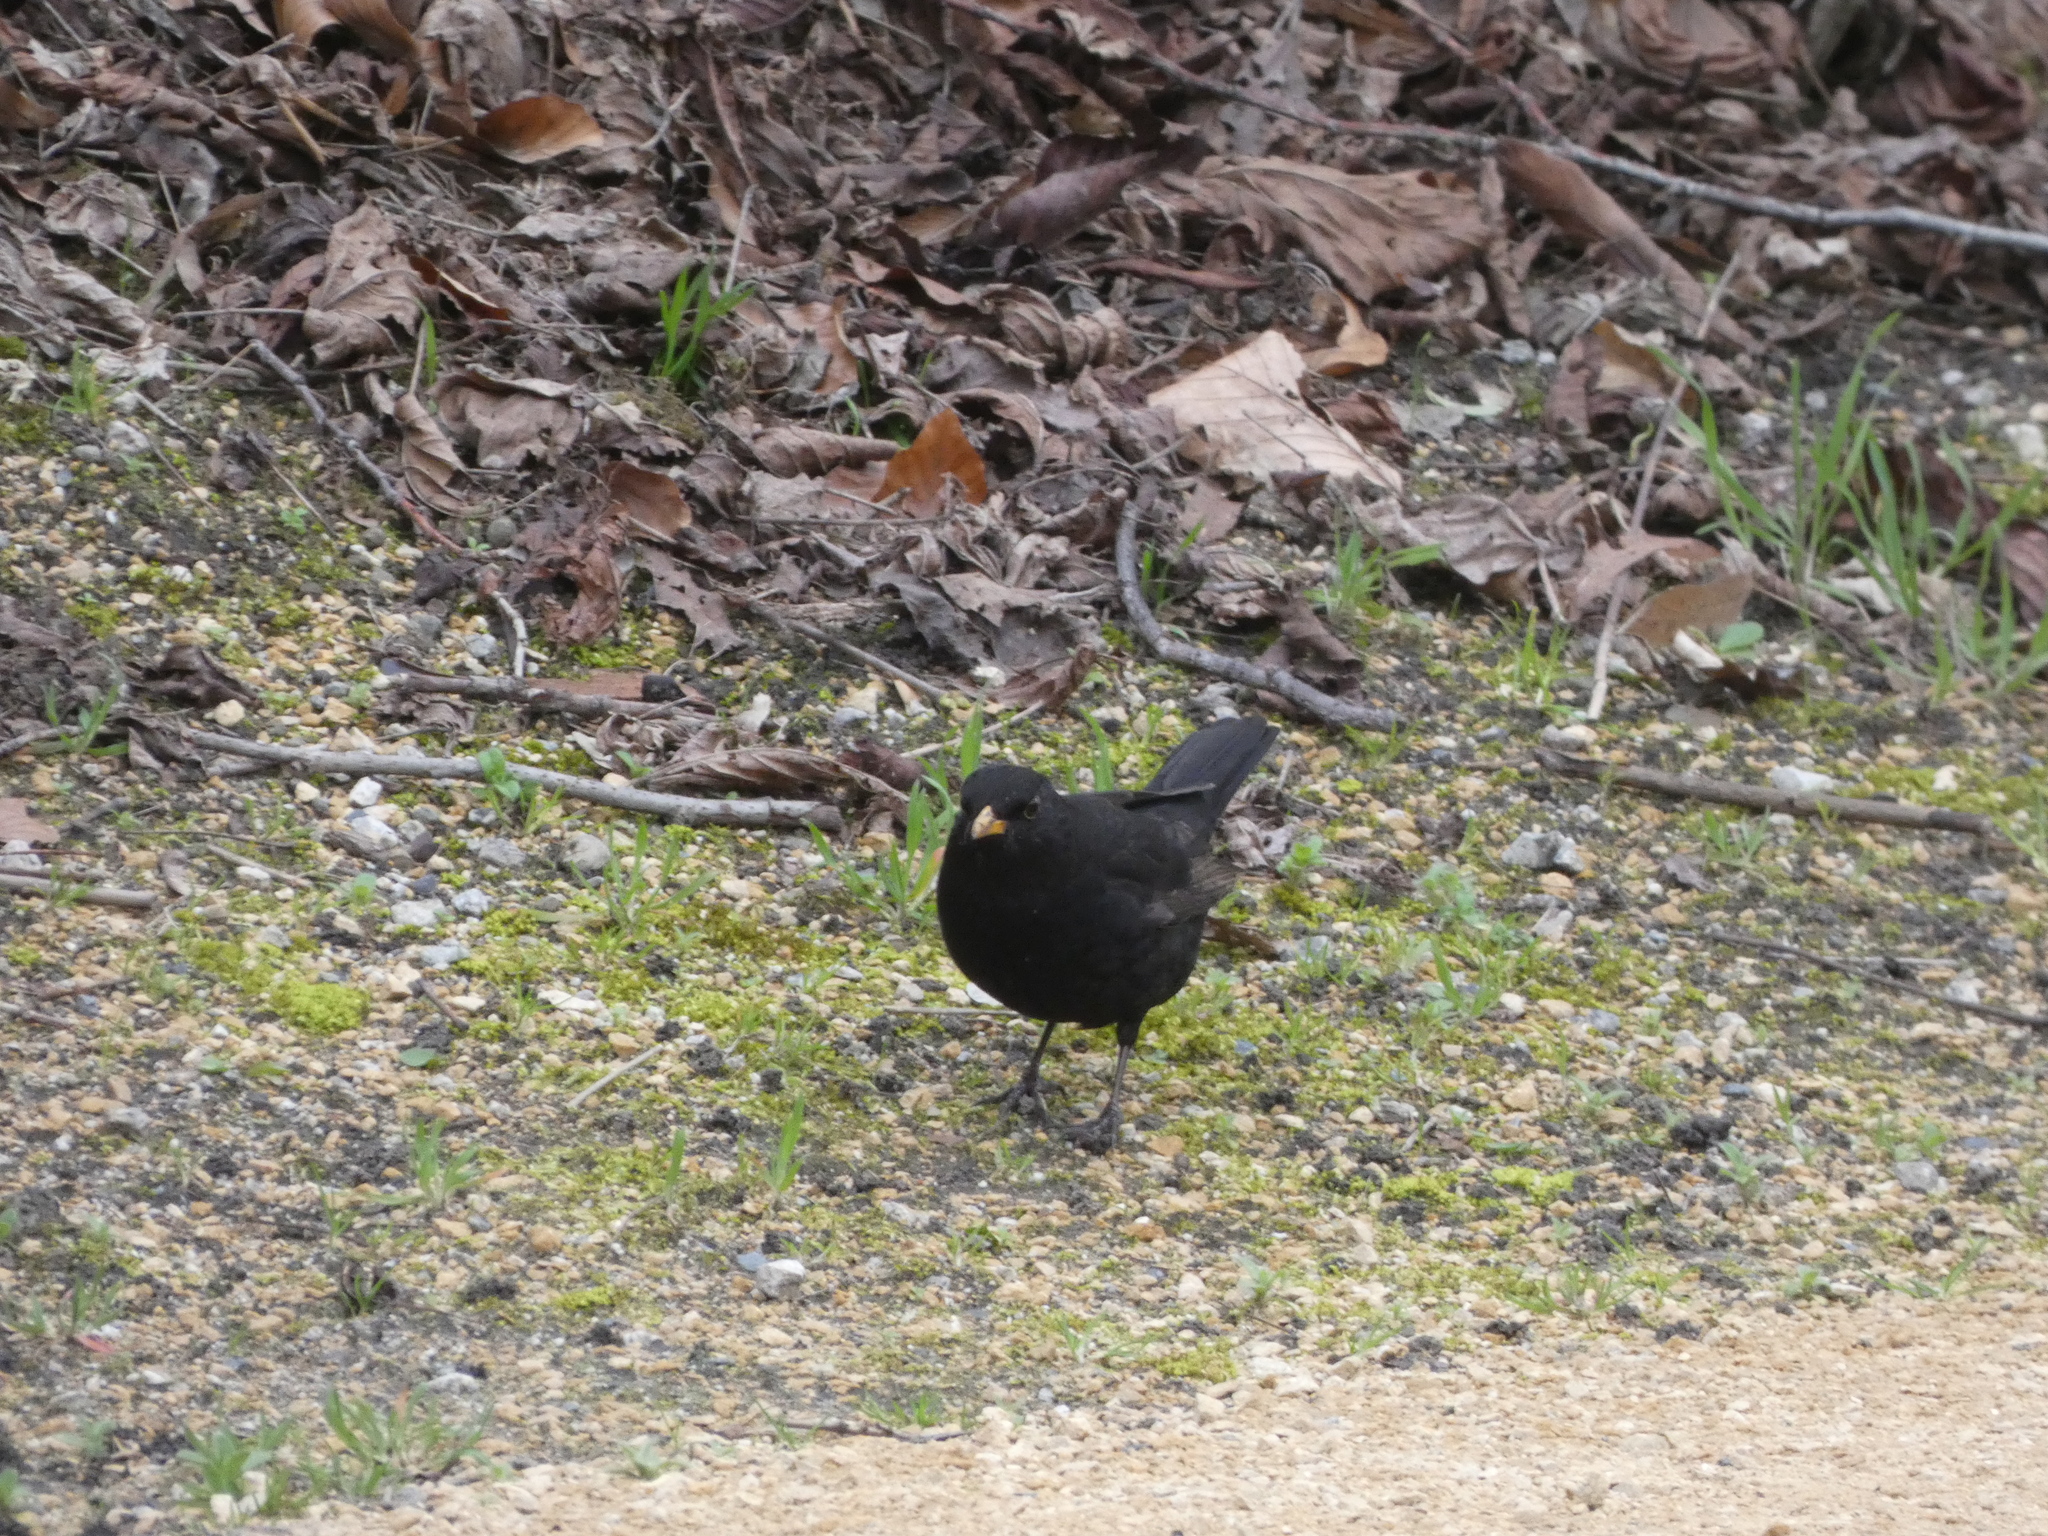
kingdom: Animalia
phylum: Chordata
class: Aves
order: Passeriformes
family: Turdidae
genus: Turdus
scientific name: Turdus merula
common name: Common blackbird
